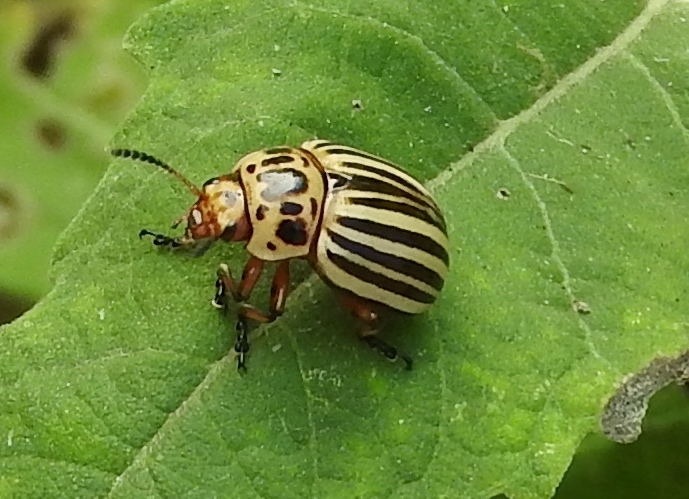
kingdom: Animalia
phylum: Arthropoda
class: Insecta
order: Coleoptera
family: Chrysomelidae
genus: Leptinotarsa
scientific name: Leptinotarsa decemlineata
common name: Colorado potato beetle
